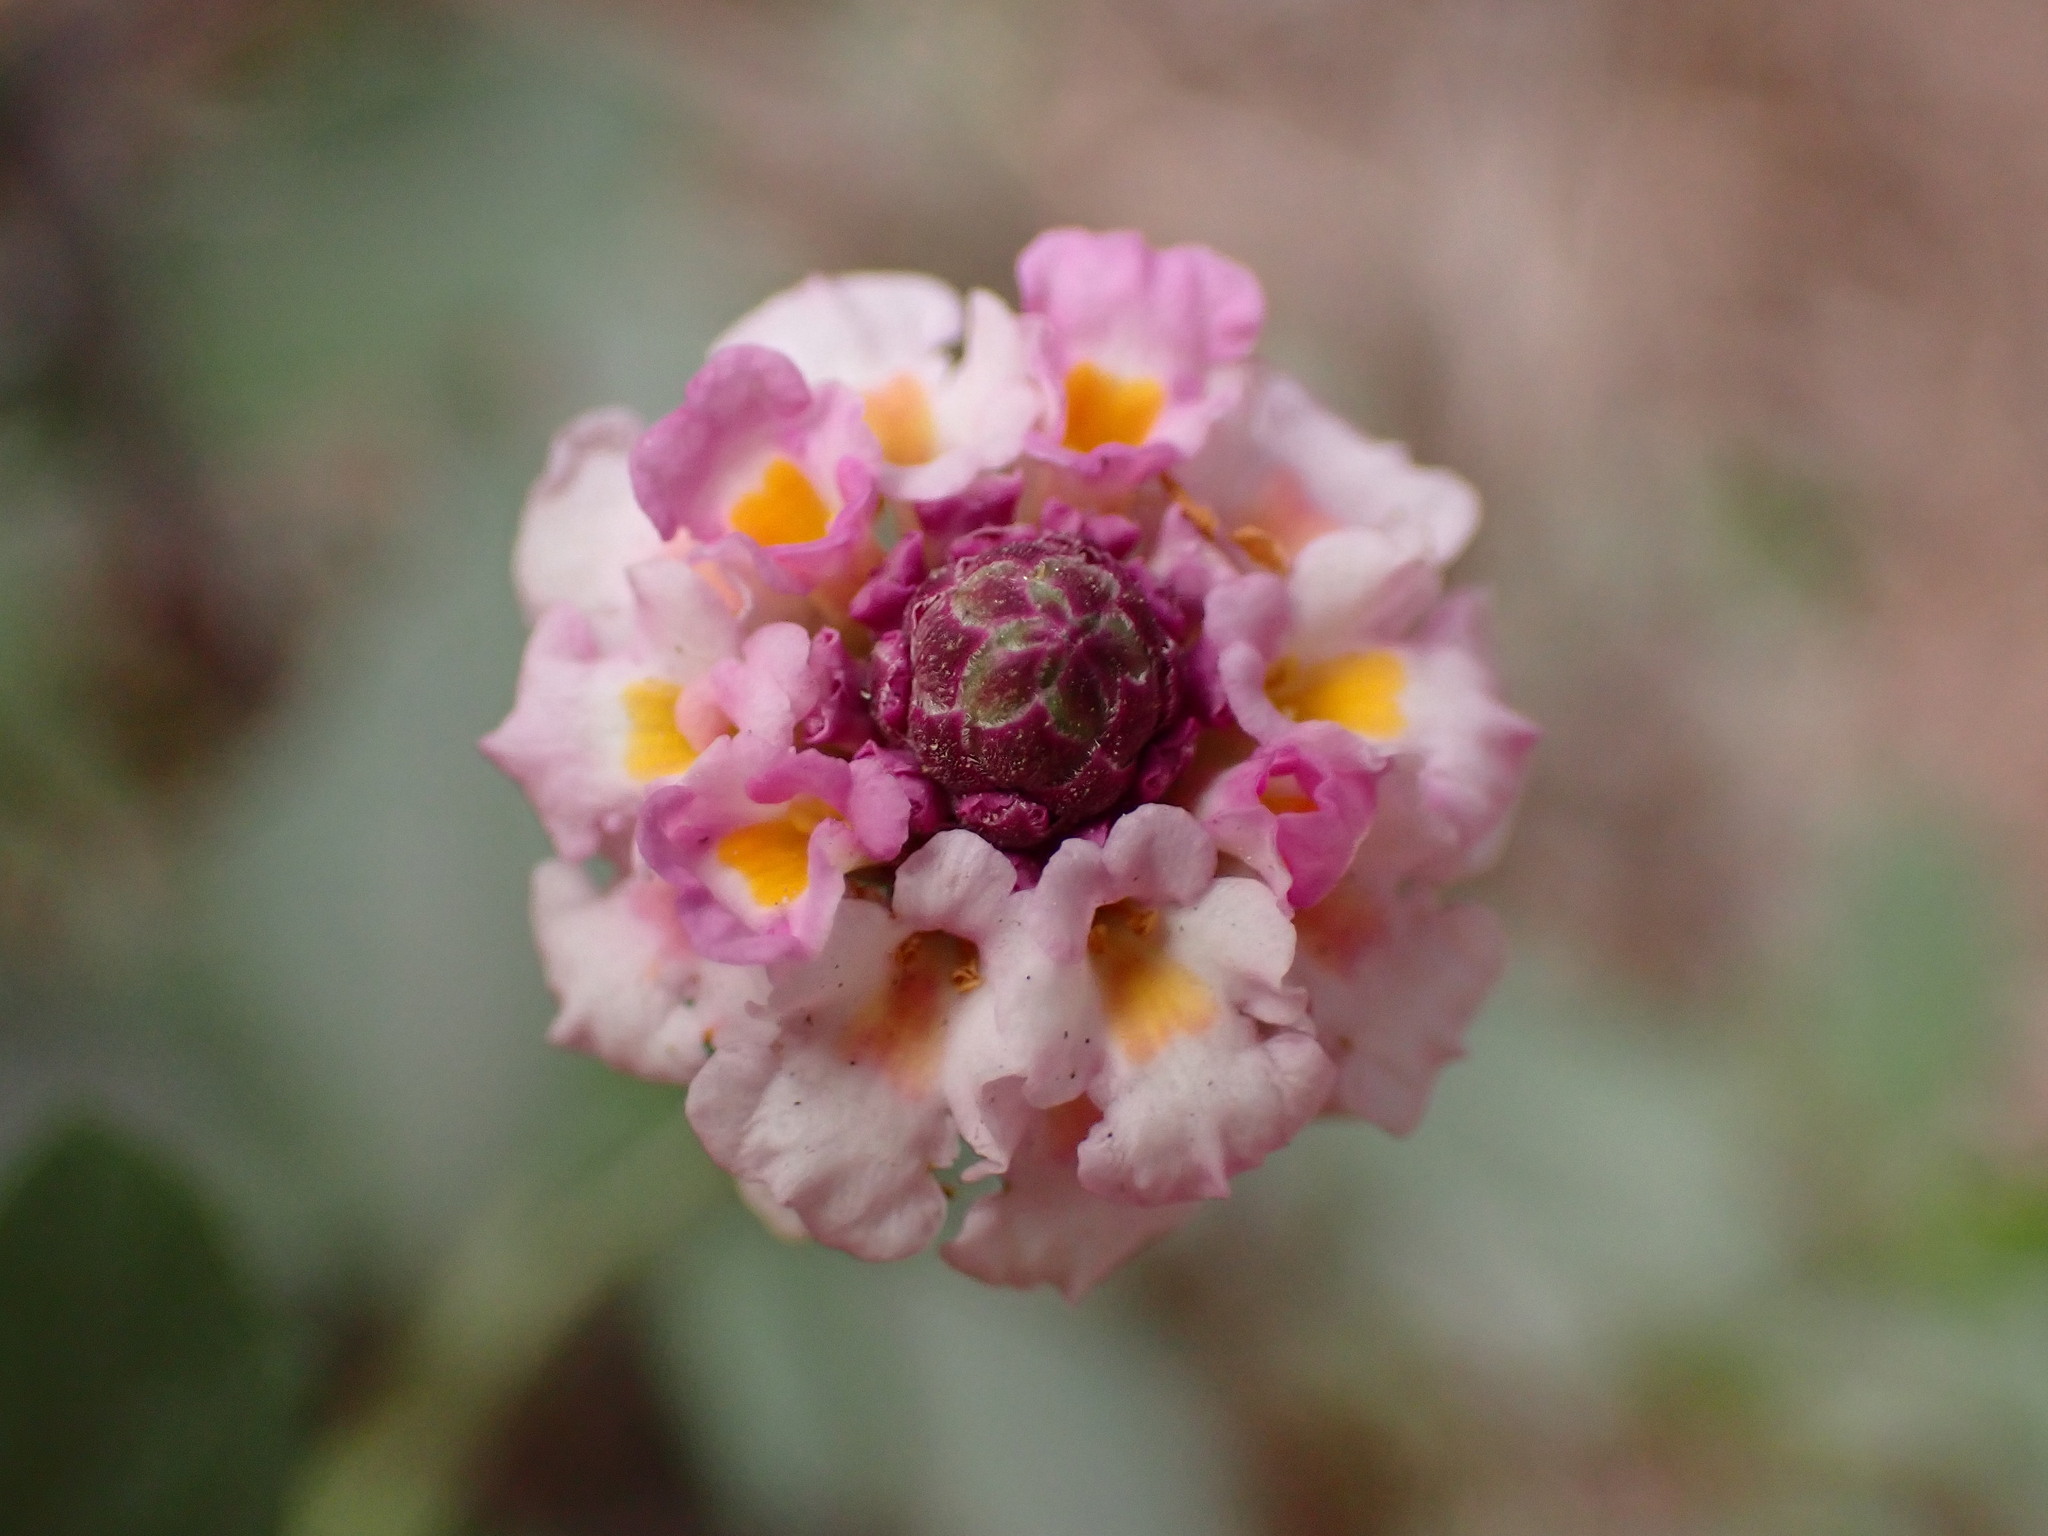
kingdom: Plantae
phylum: Tracheophyta
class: Magnoliopsida
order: Lamiales
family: Verbenaceae
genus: Phyla
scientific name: Phyla nodiflora
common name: Frogfruit
